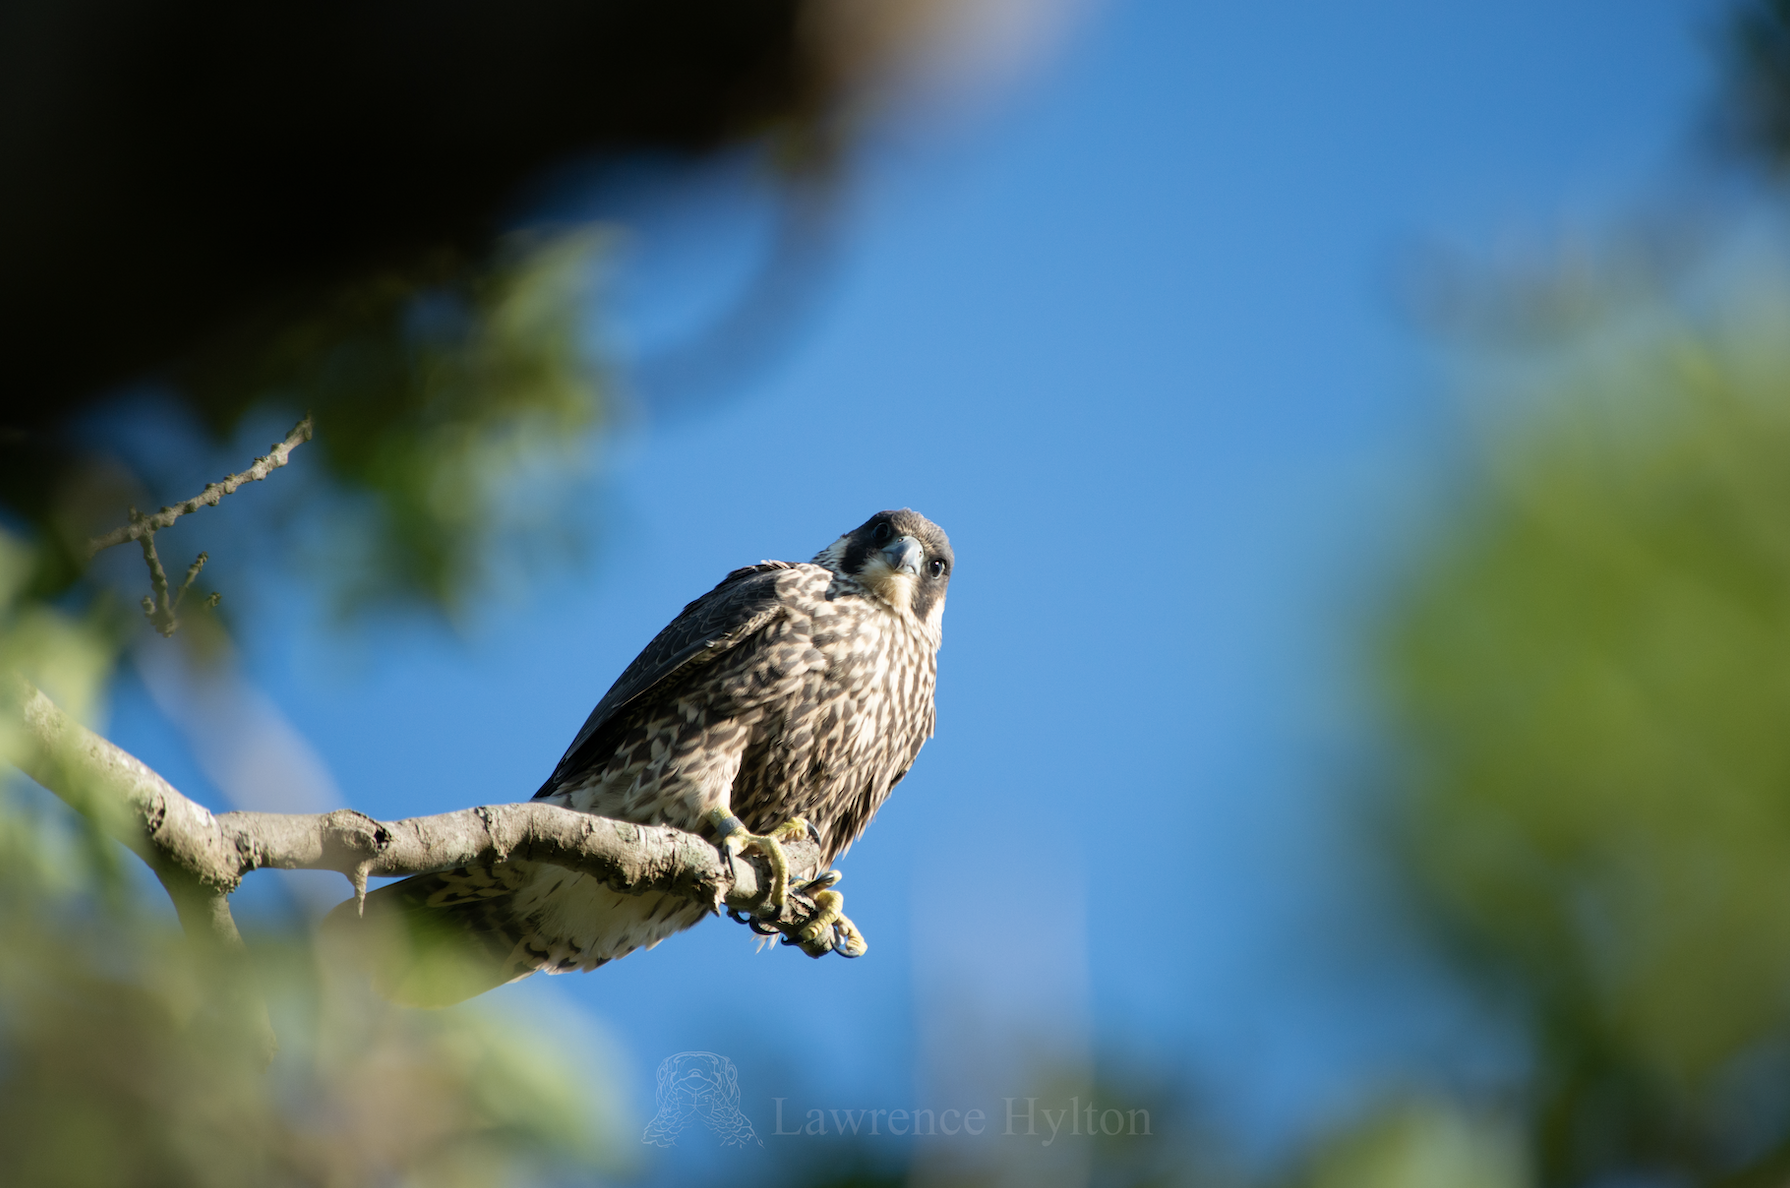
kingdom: Animalia
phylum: Chordata
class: Aves
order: Falconiformes
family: Falconidae
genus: Falco
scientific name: Falco peregrinus
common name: Peregrine falcon
